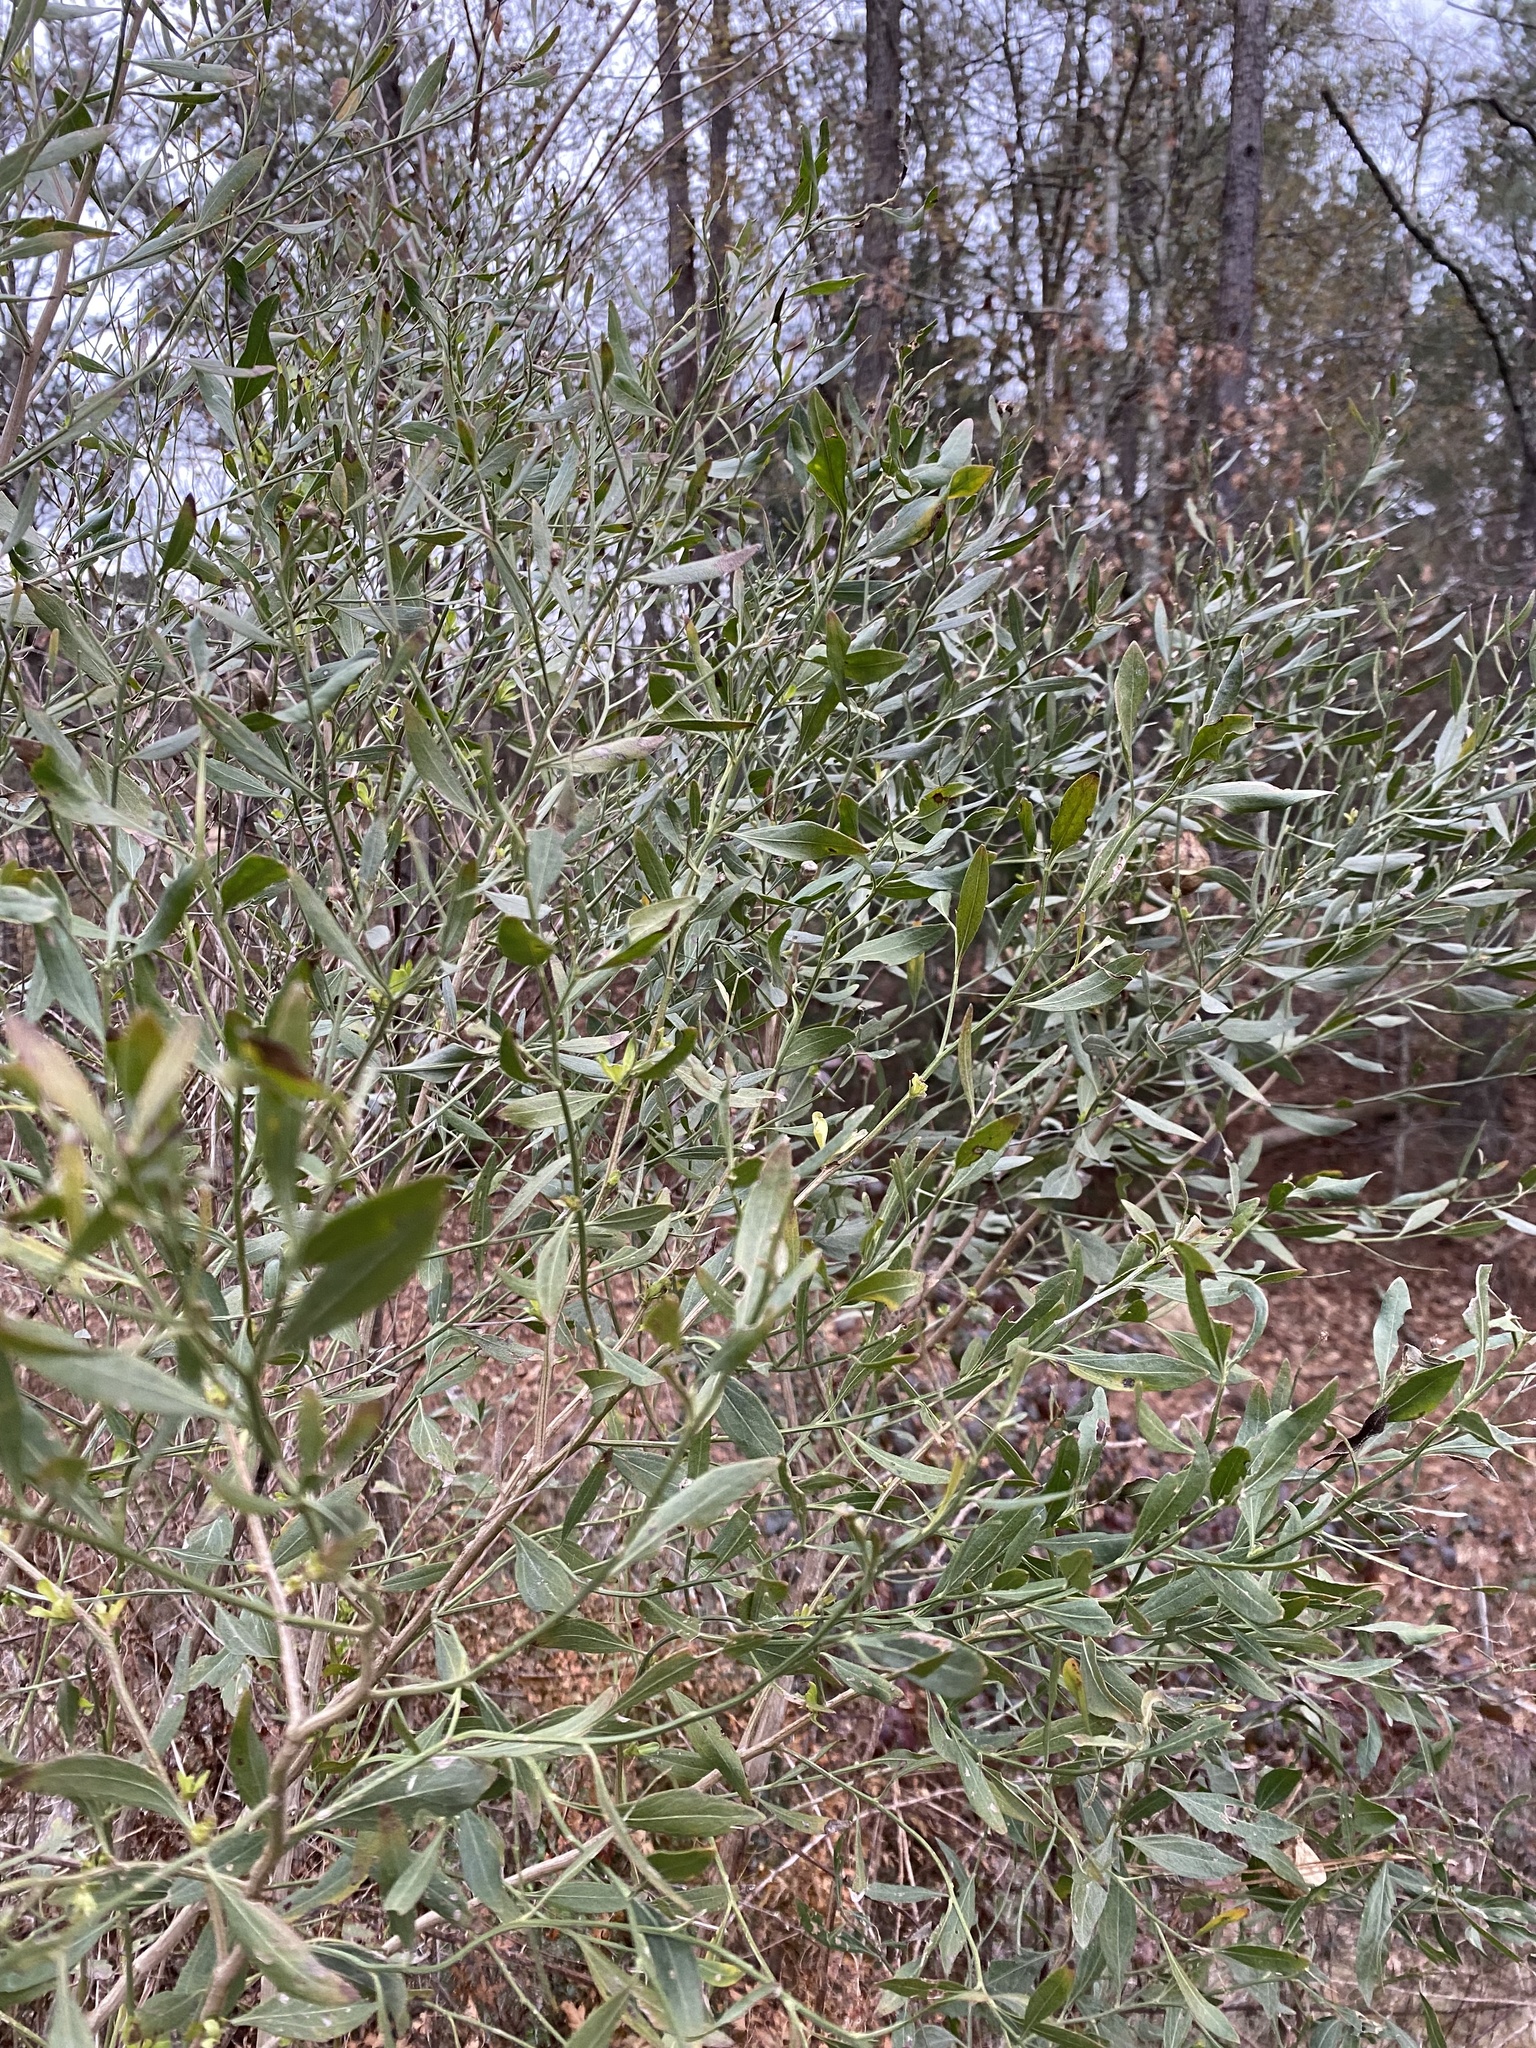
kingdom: Plantae
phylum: Tracheophyta
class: Magnoliopsida
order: Asterales
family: Asteraceae
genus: Baccharis
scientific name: Baccharis halimifolia
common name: Eastern baccharis
